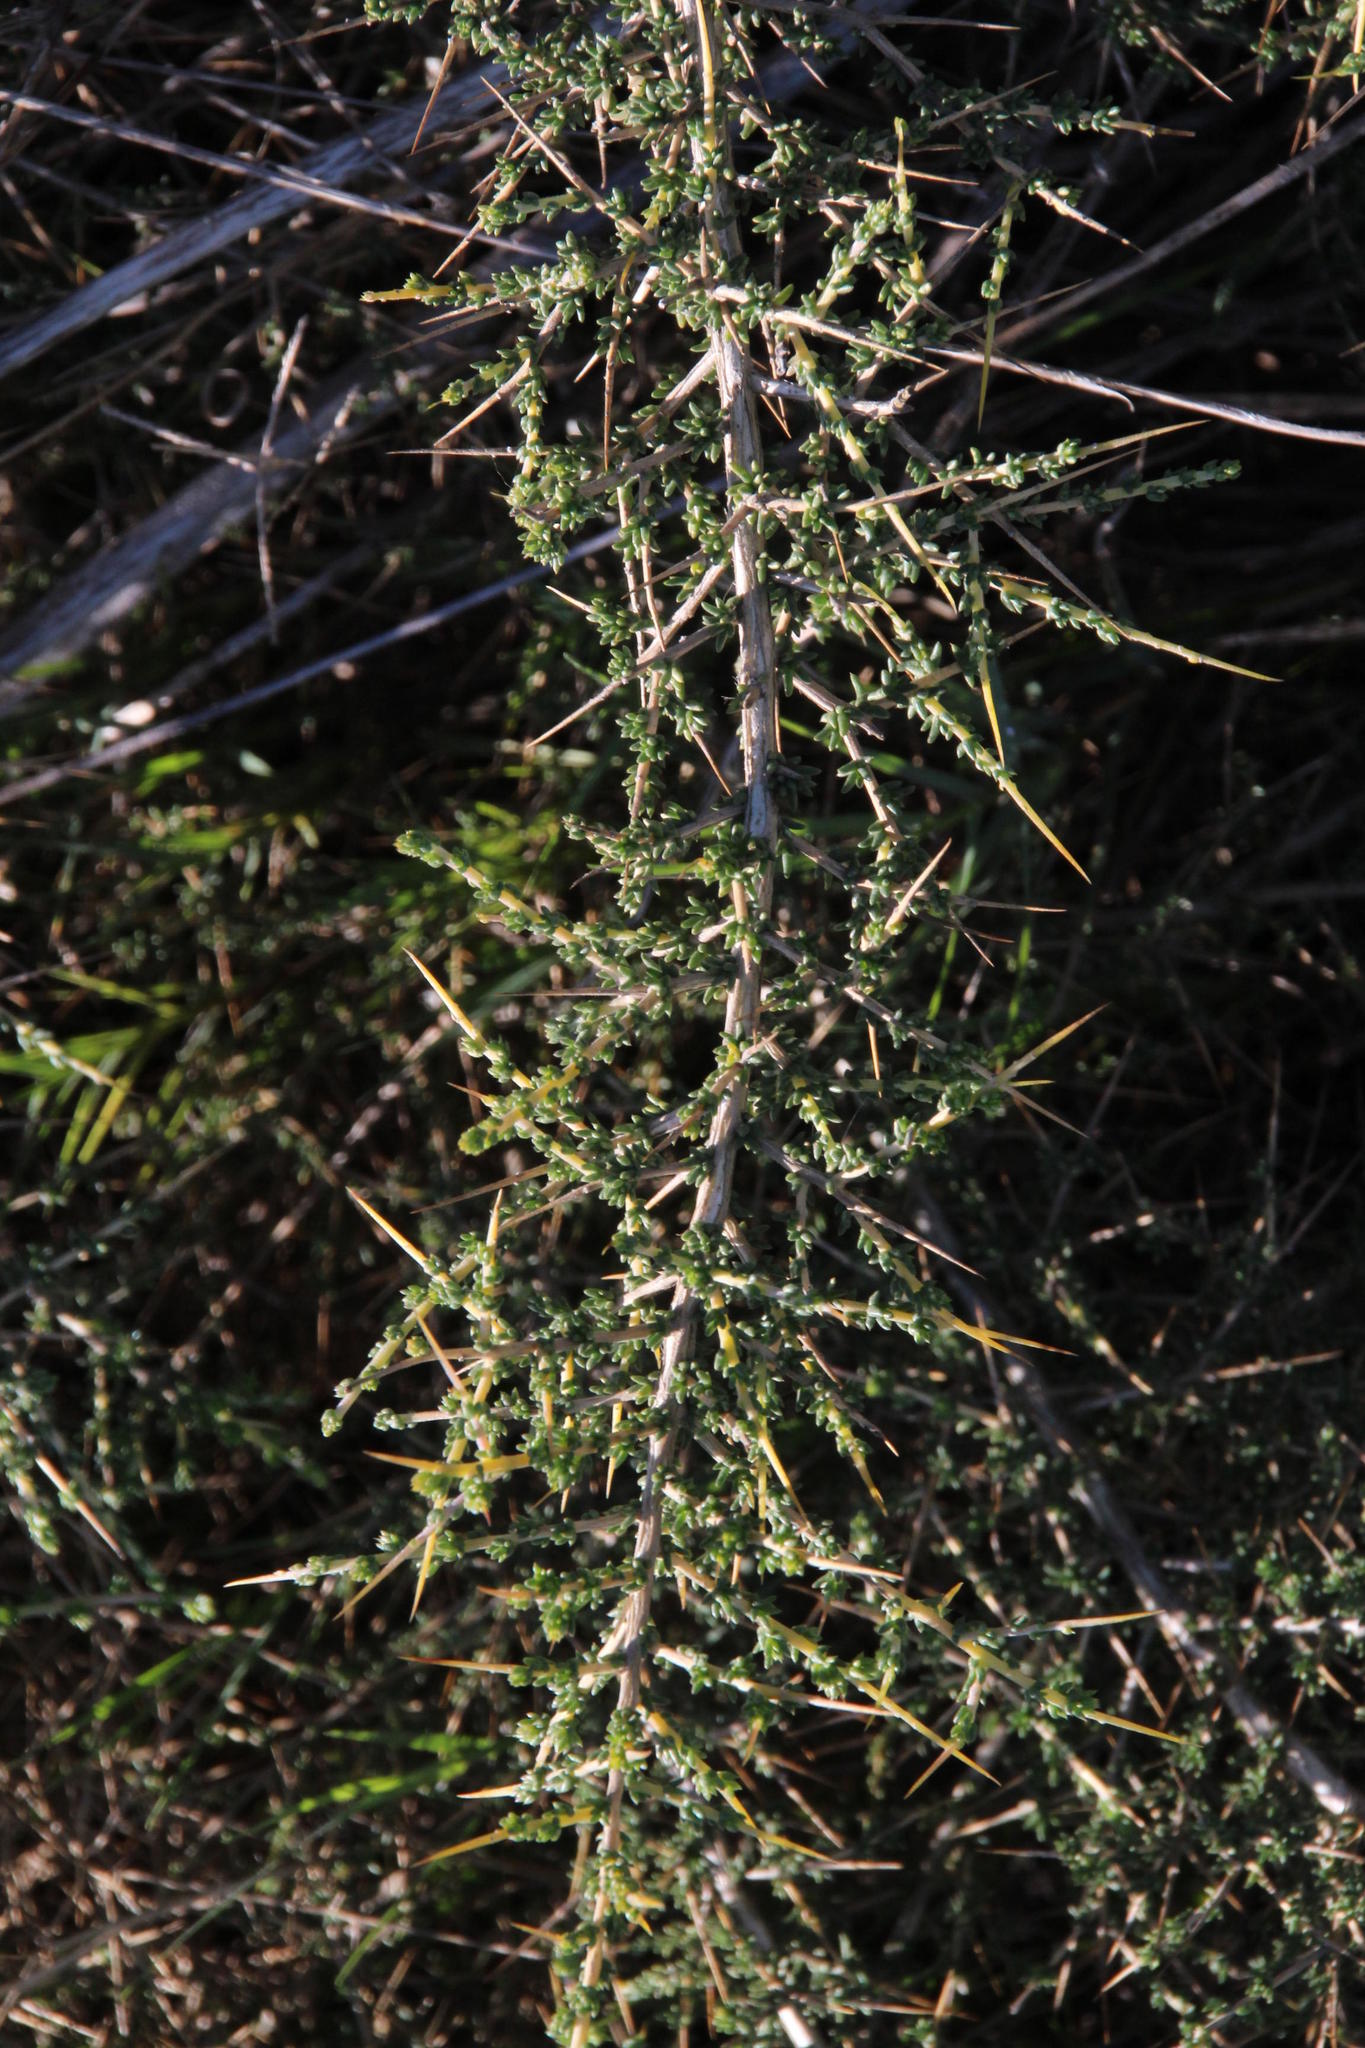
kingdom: Plantae
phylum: Tracheophyta
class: Magnoliopsida
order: Fabales
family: Fabaceae
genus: Aspalathus
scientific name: Aspalathus acuminata
